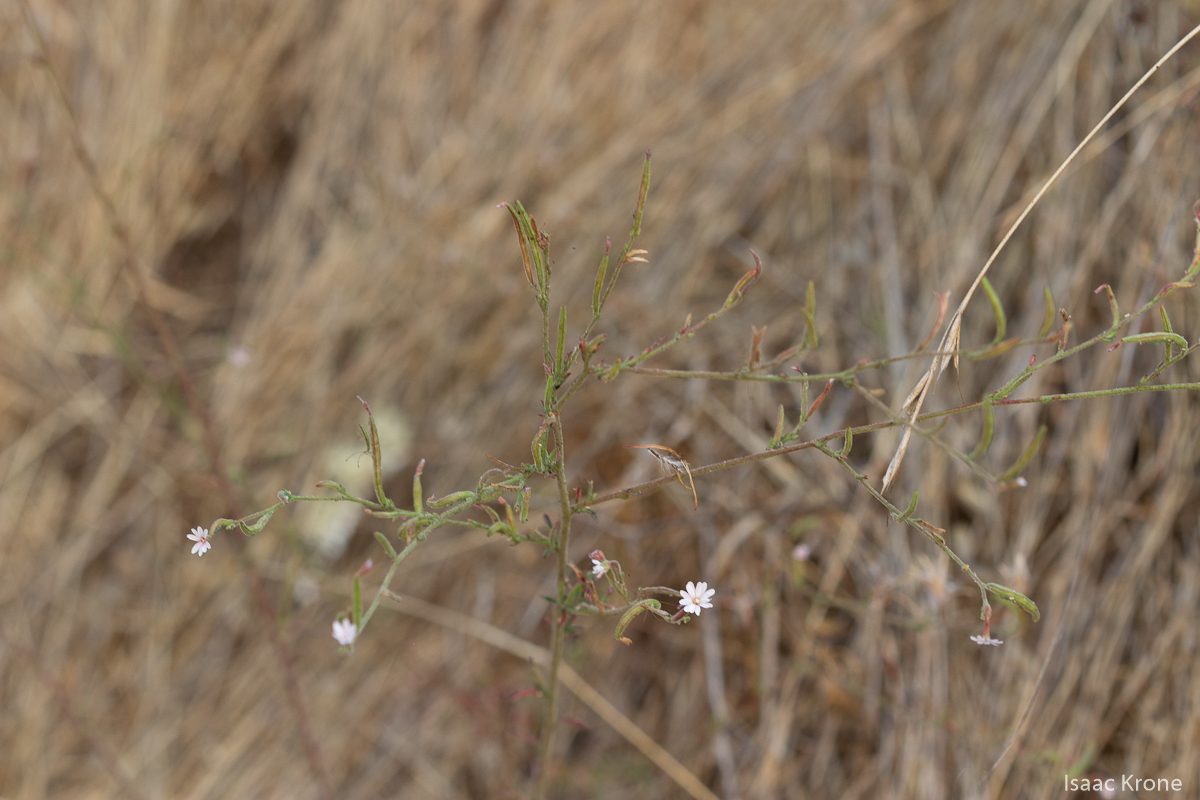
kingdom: Plantae
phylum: Tracheophyta
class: Magnoliopsida
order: Myrtales
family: Onagraceae
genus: Epilobium
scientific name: Epilobium brachycarpum
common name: Annual willowherb
